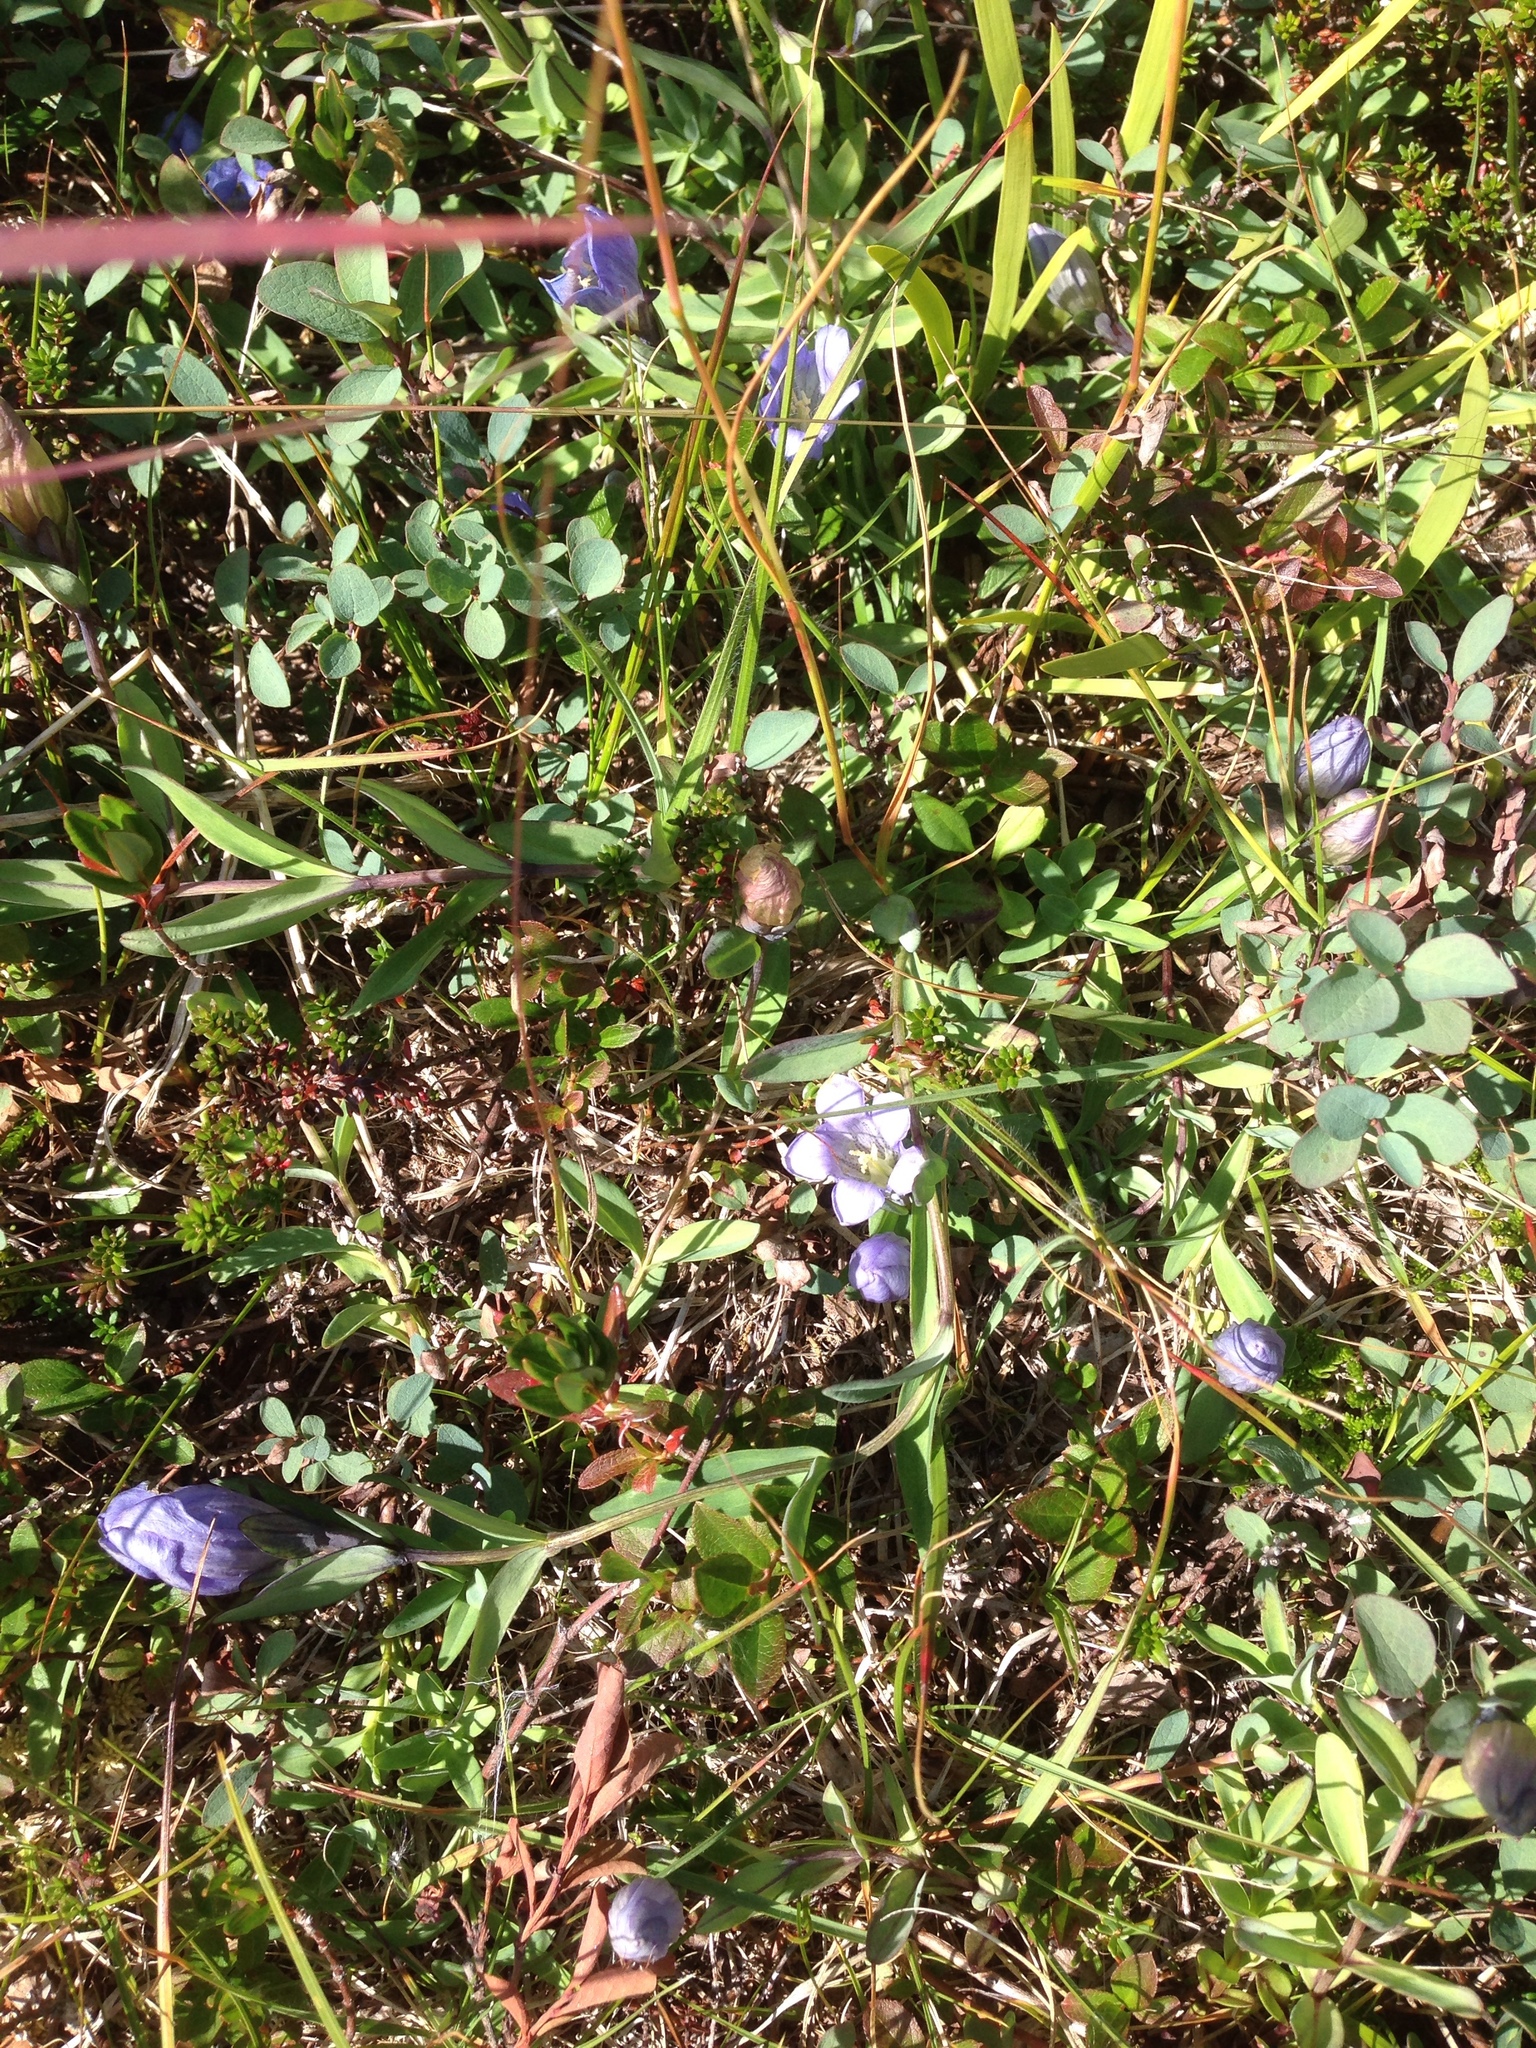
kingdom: Plantae
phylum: Tracheophyta
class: Magnoliopsida
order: Gentianales
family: Gentianaceae
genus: Gentiana
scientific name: Gentiana sceptrum
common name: Pacific gentian
